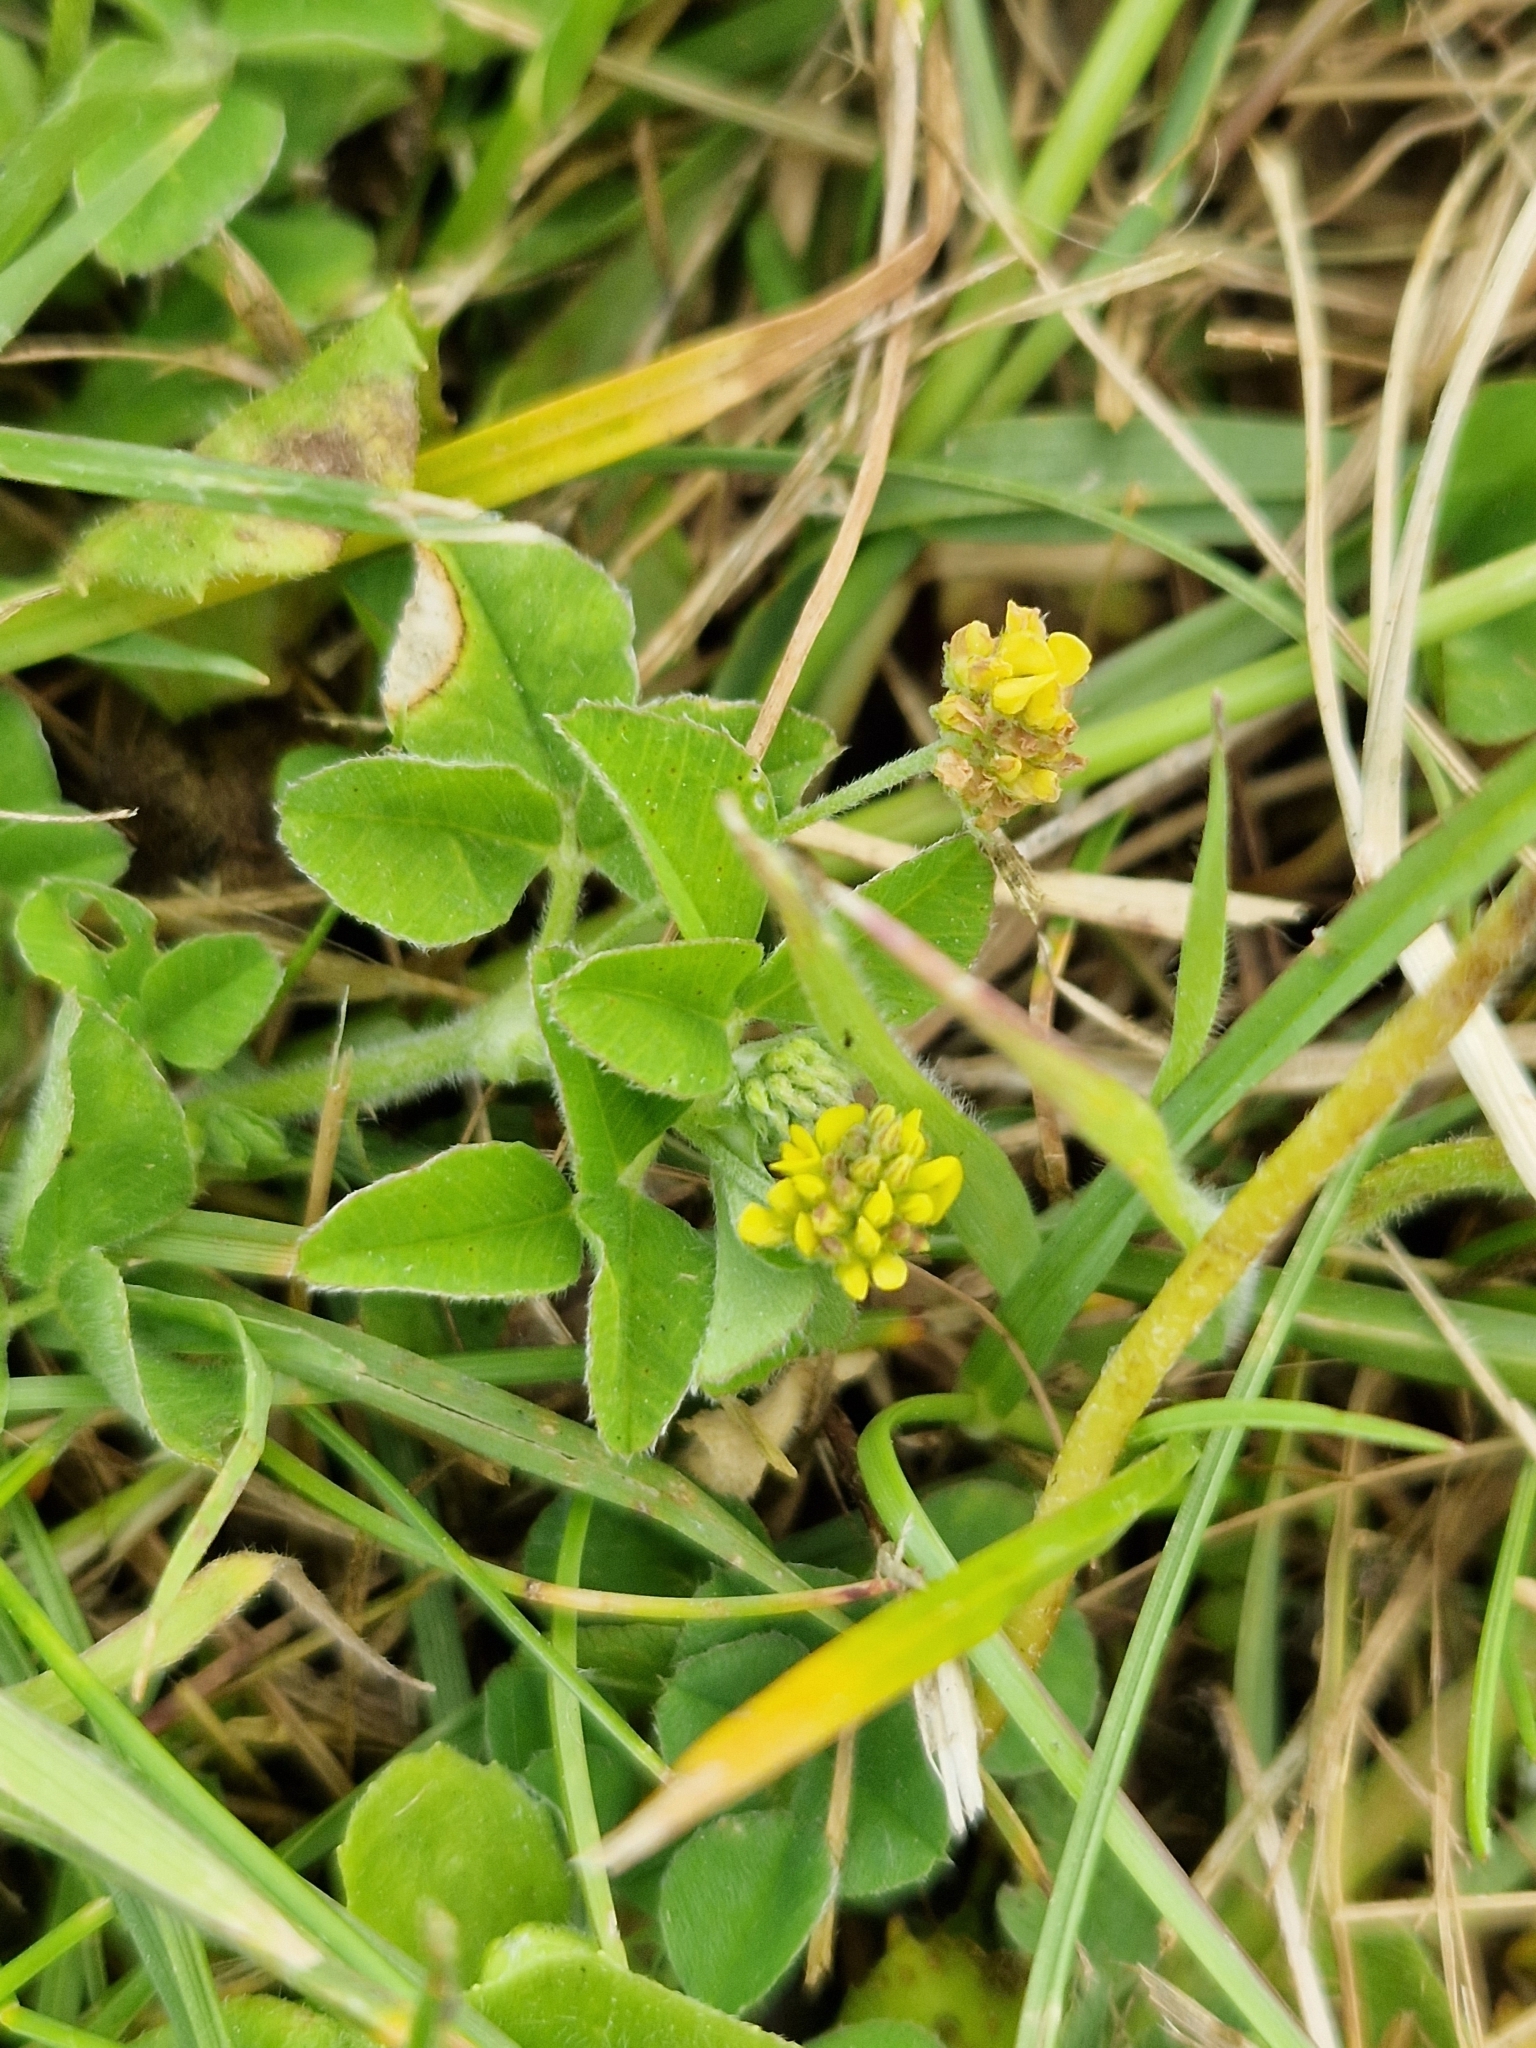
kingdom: Plantae
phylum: Tracheophyta
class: Magnoliopsida
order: Fabales
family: Fabaceae
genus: Medicago
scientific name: Medicago lupulina
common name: Black medick
